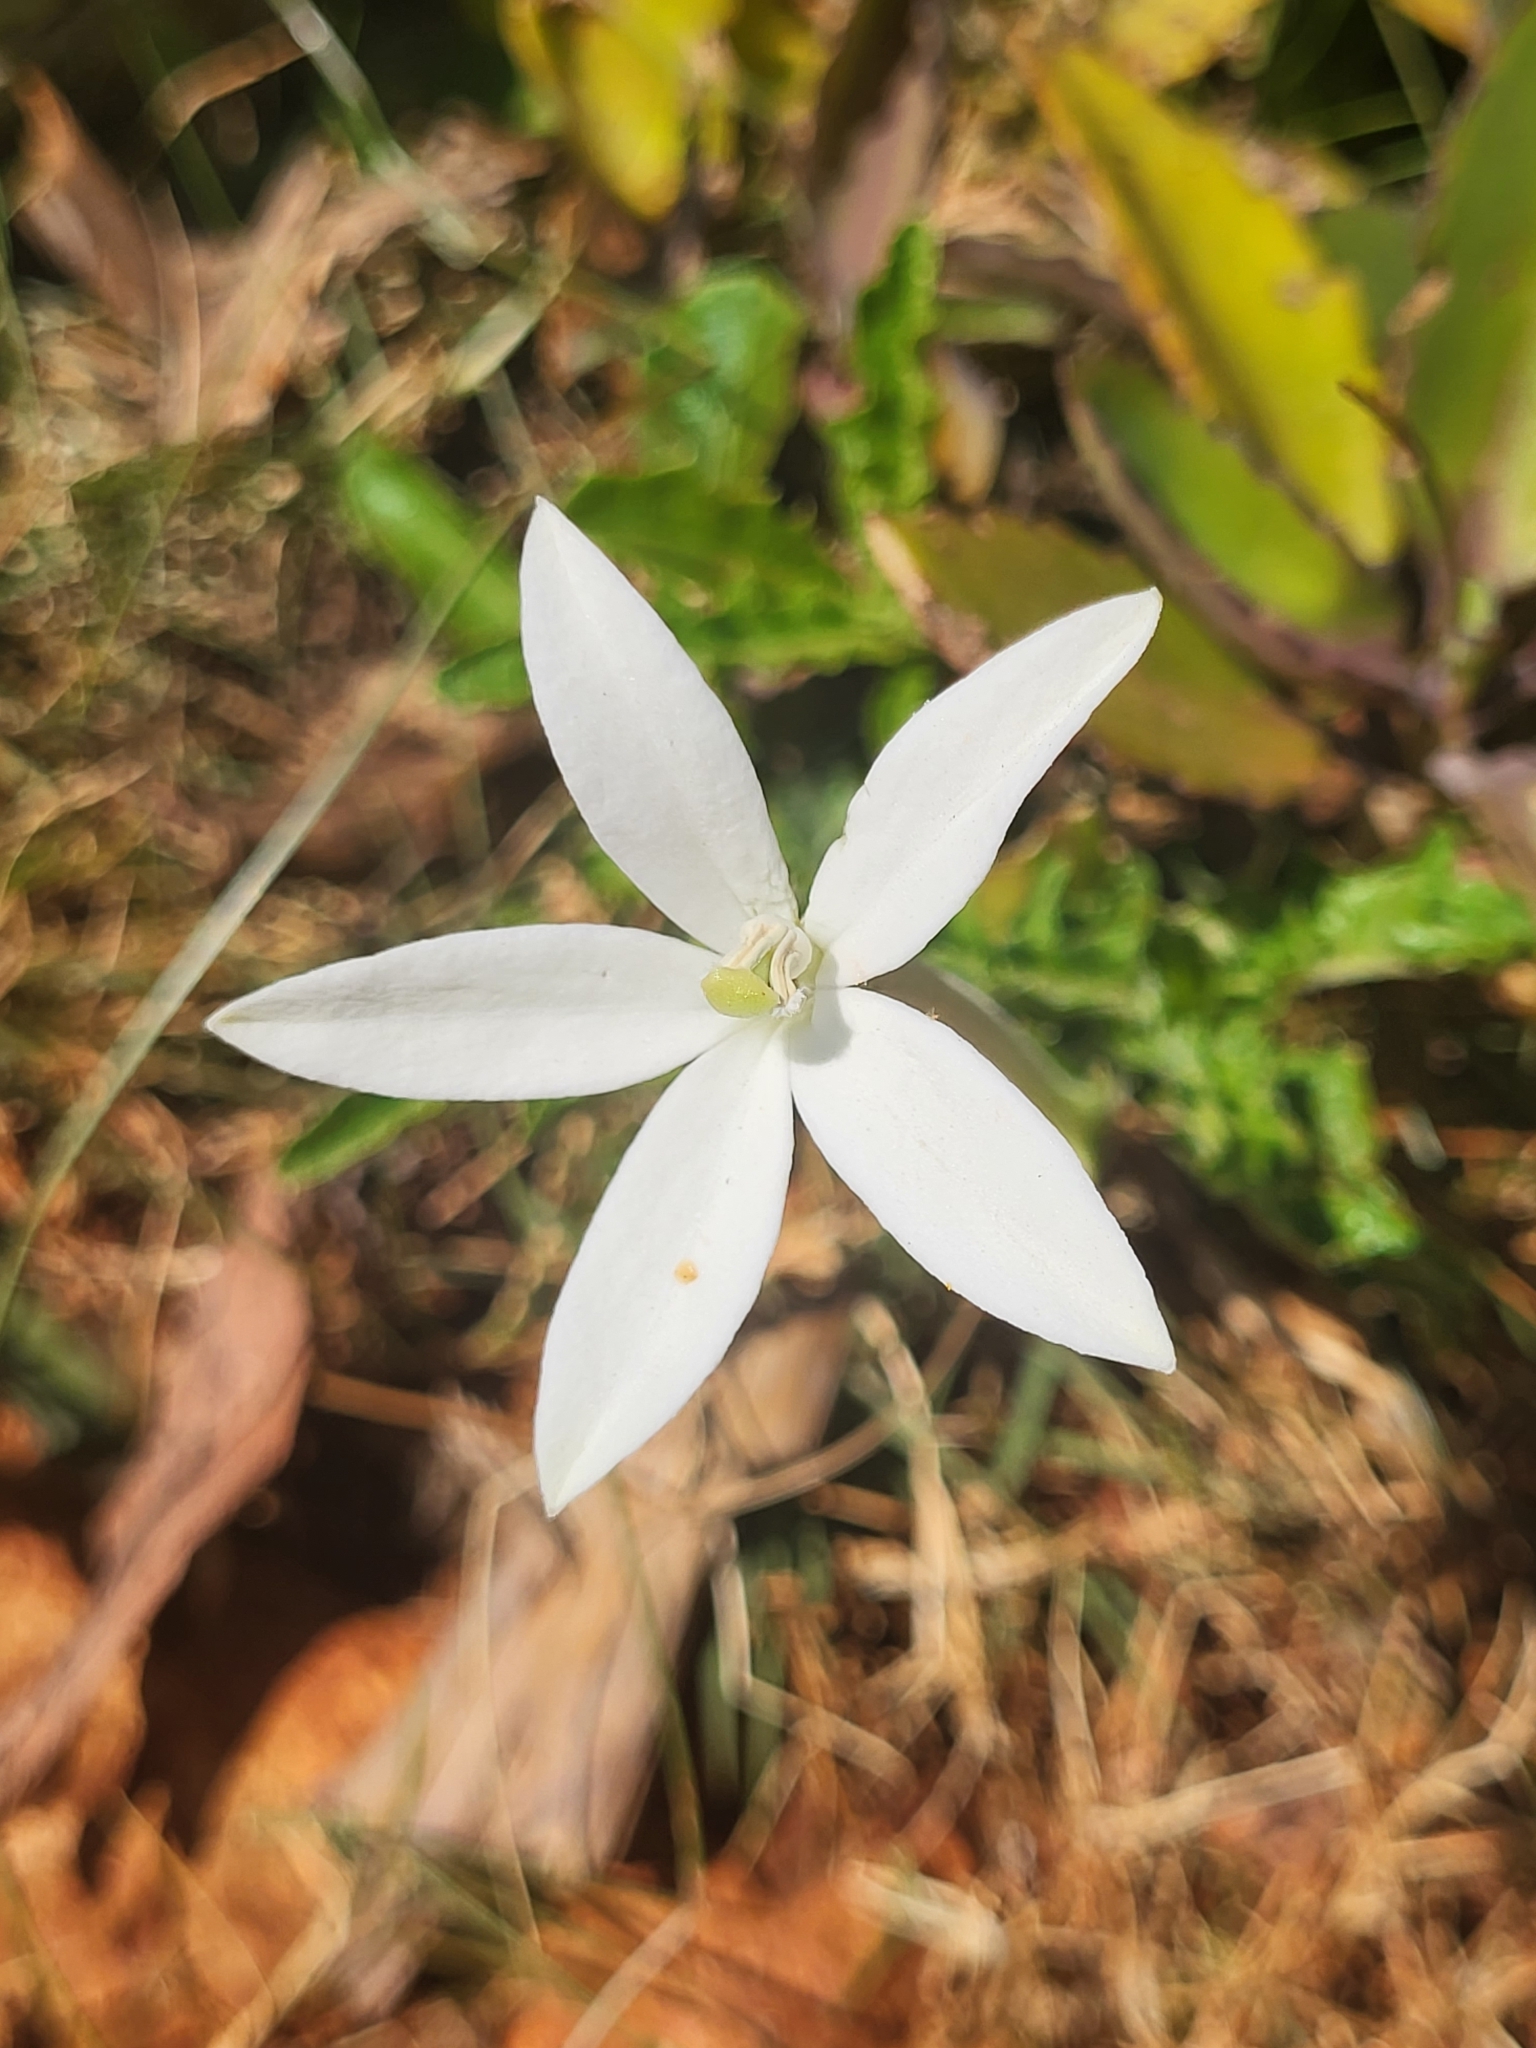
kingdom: Plantae
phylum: Tracheophyta
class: Magnoliopsida
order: Asterales
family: Campanulaceae
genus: Hippobroma
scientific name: Hippobroma longiflora
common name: Madamfate
